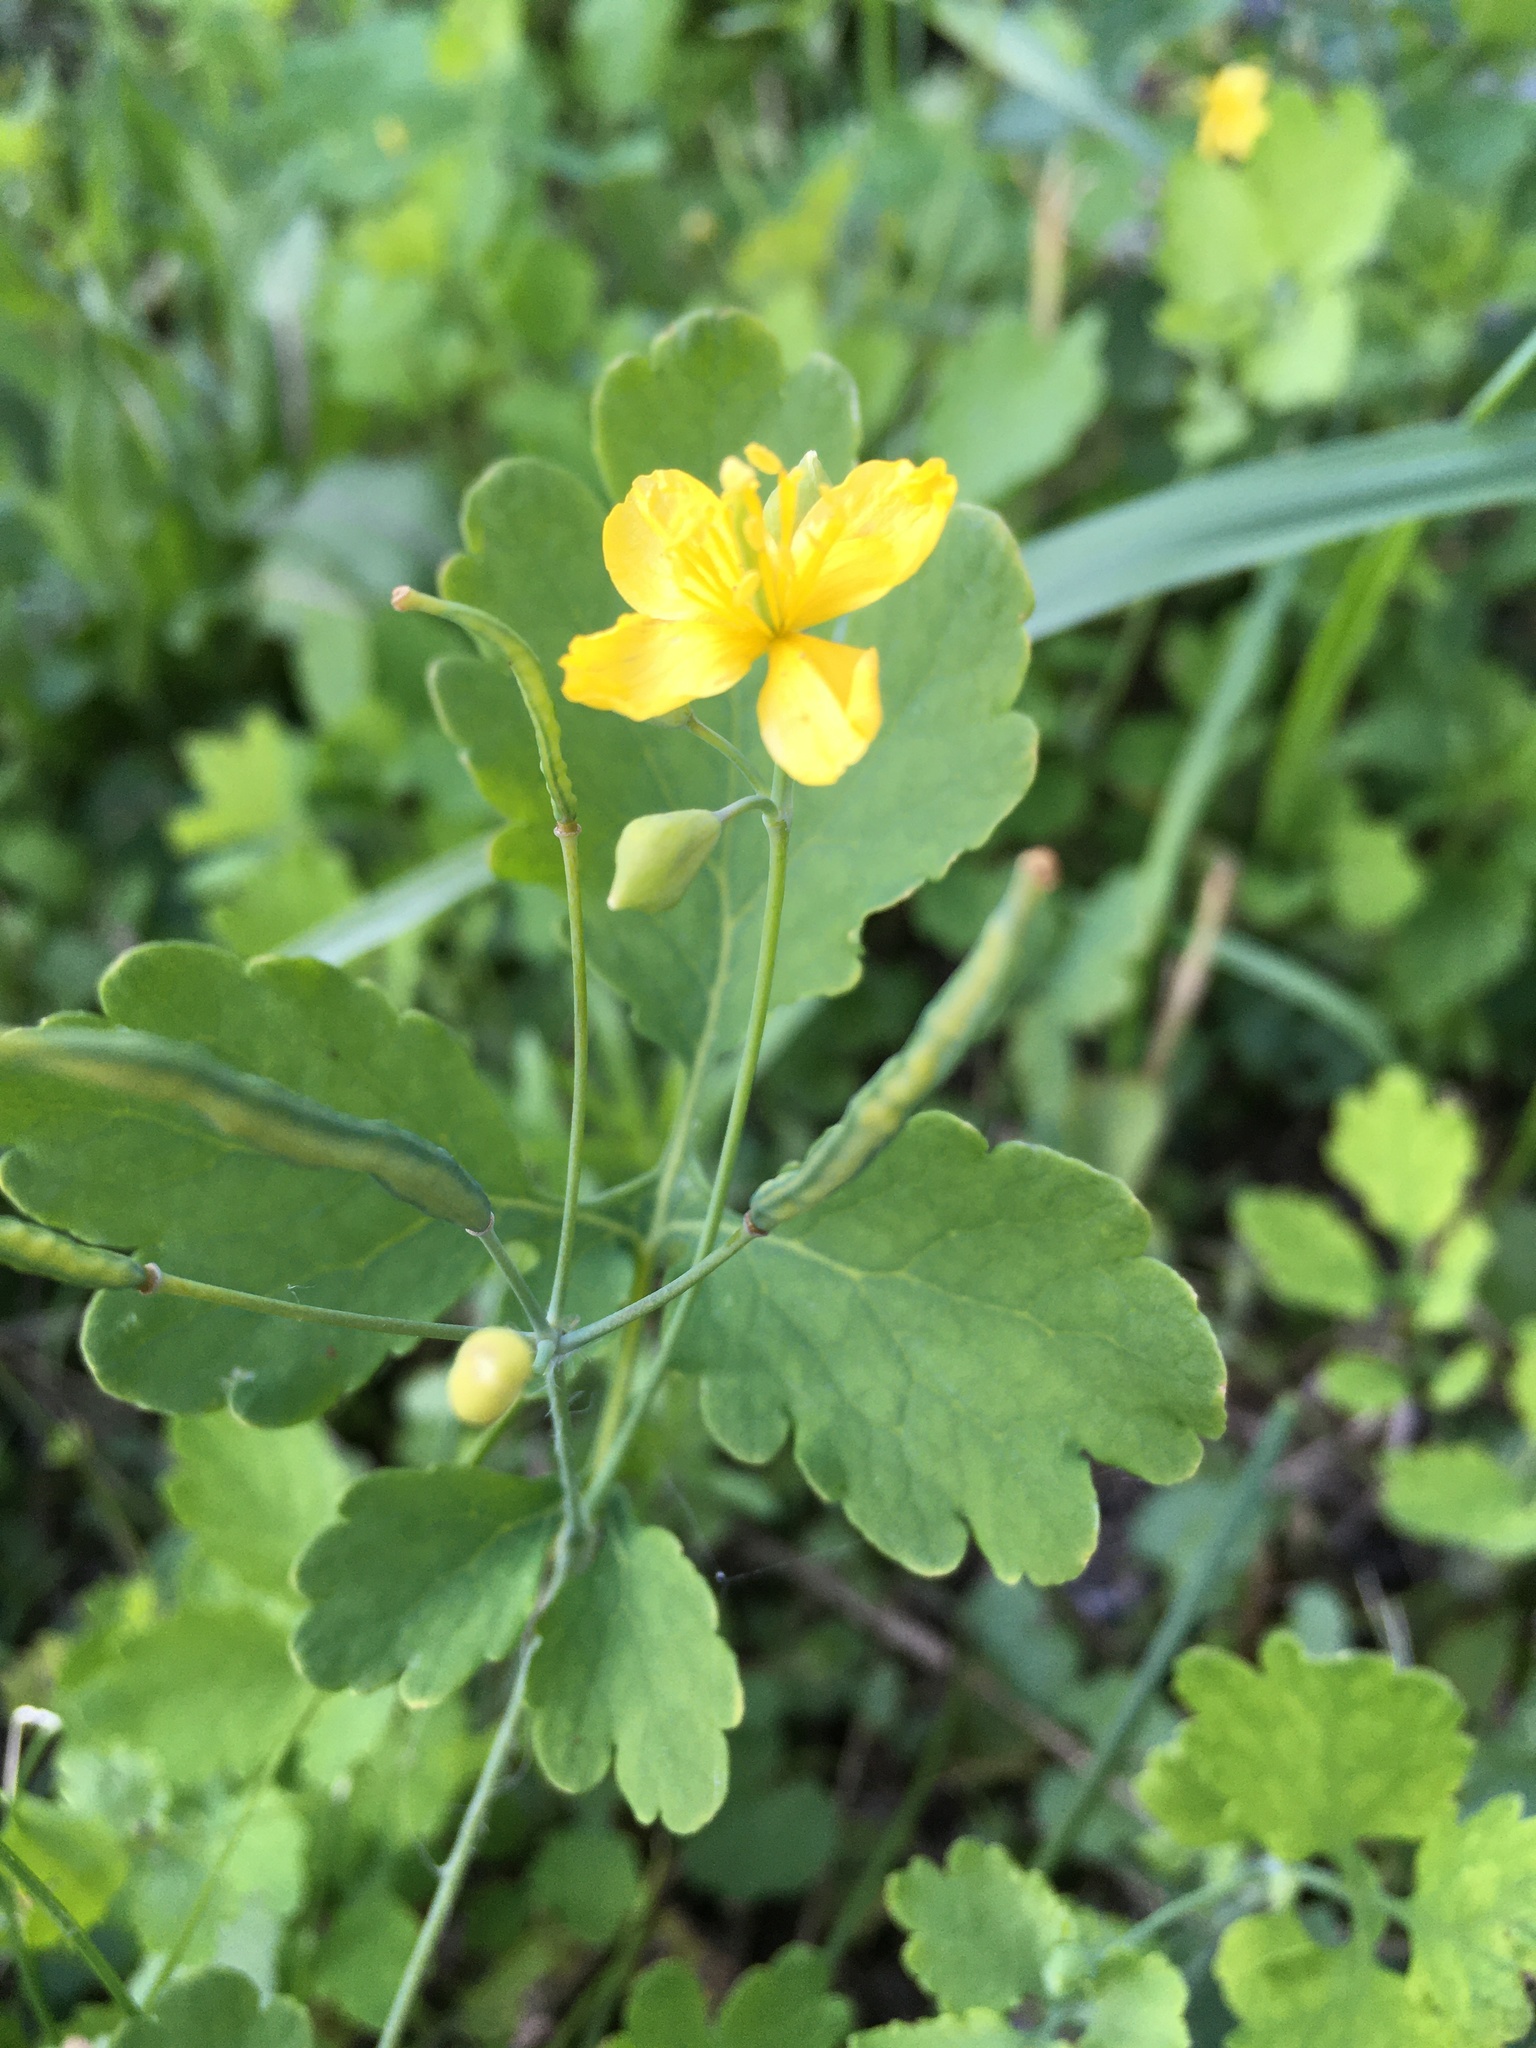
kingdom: Plantae
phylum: Tracheophyta
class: Magnoliopsida
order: Ranunculales
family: Papaveraceae
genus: Chelidonium
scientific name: Chelidonium majus
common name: Greater celandine
